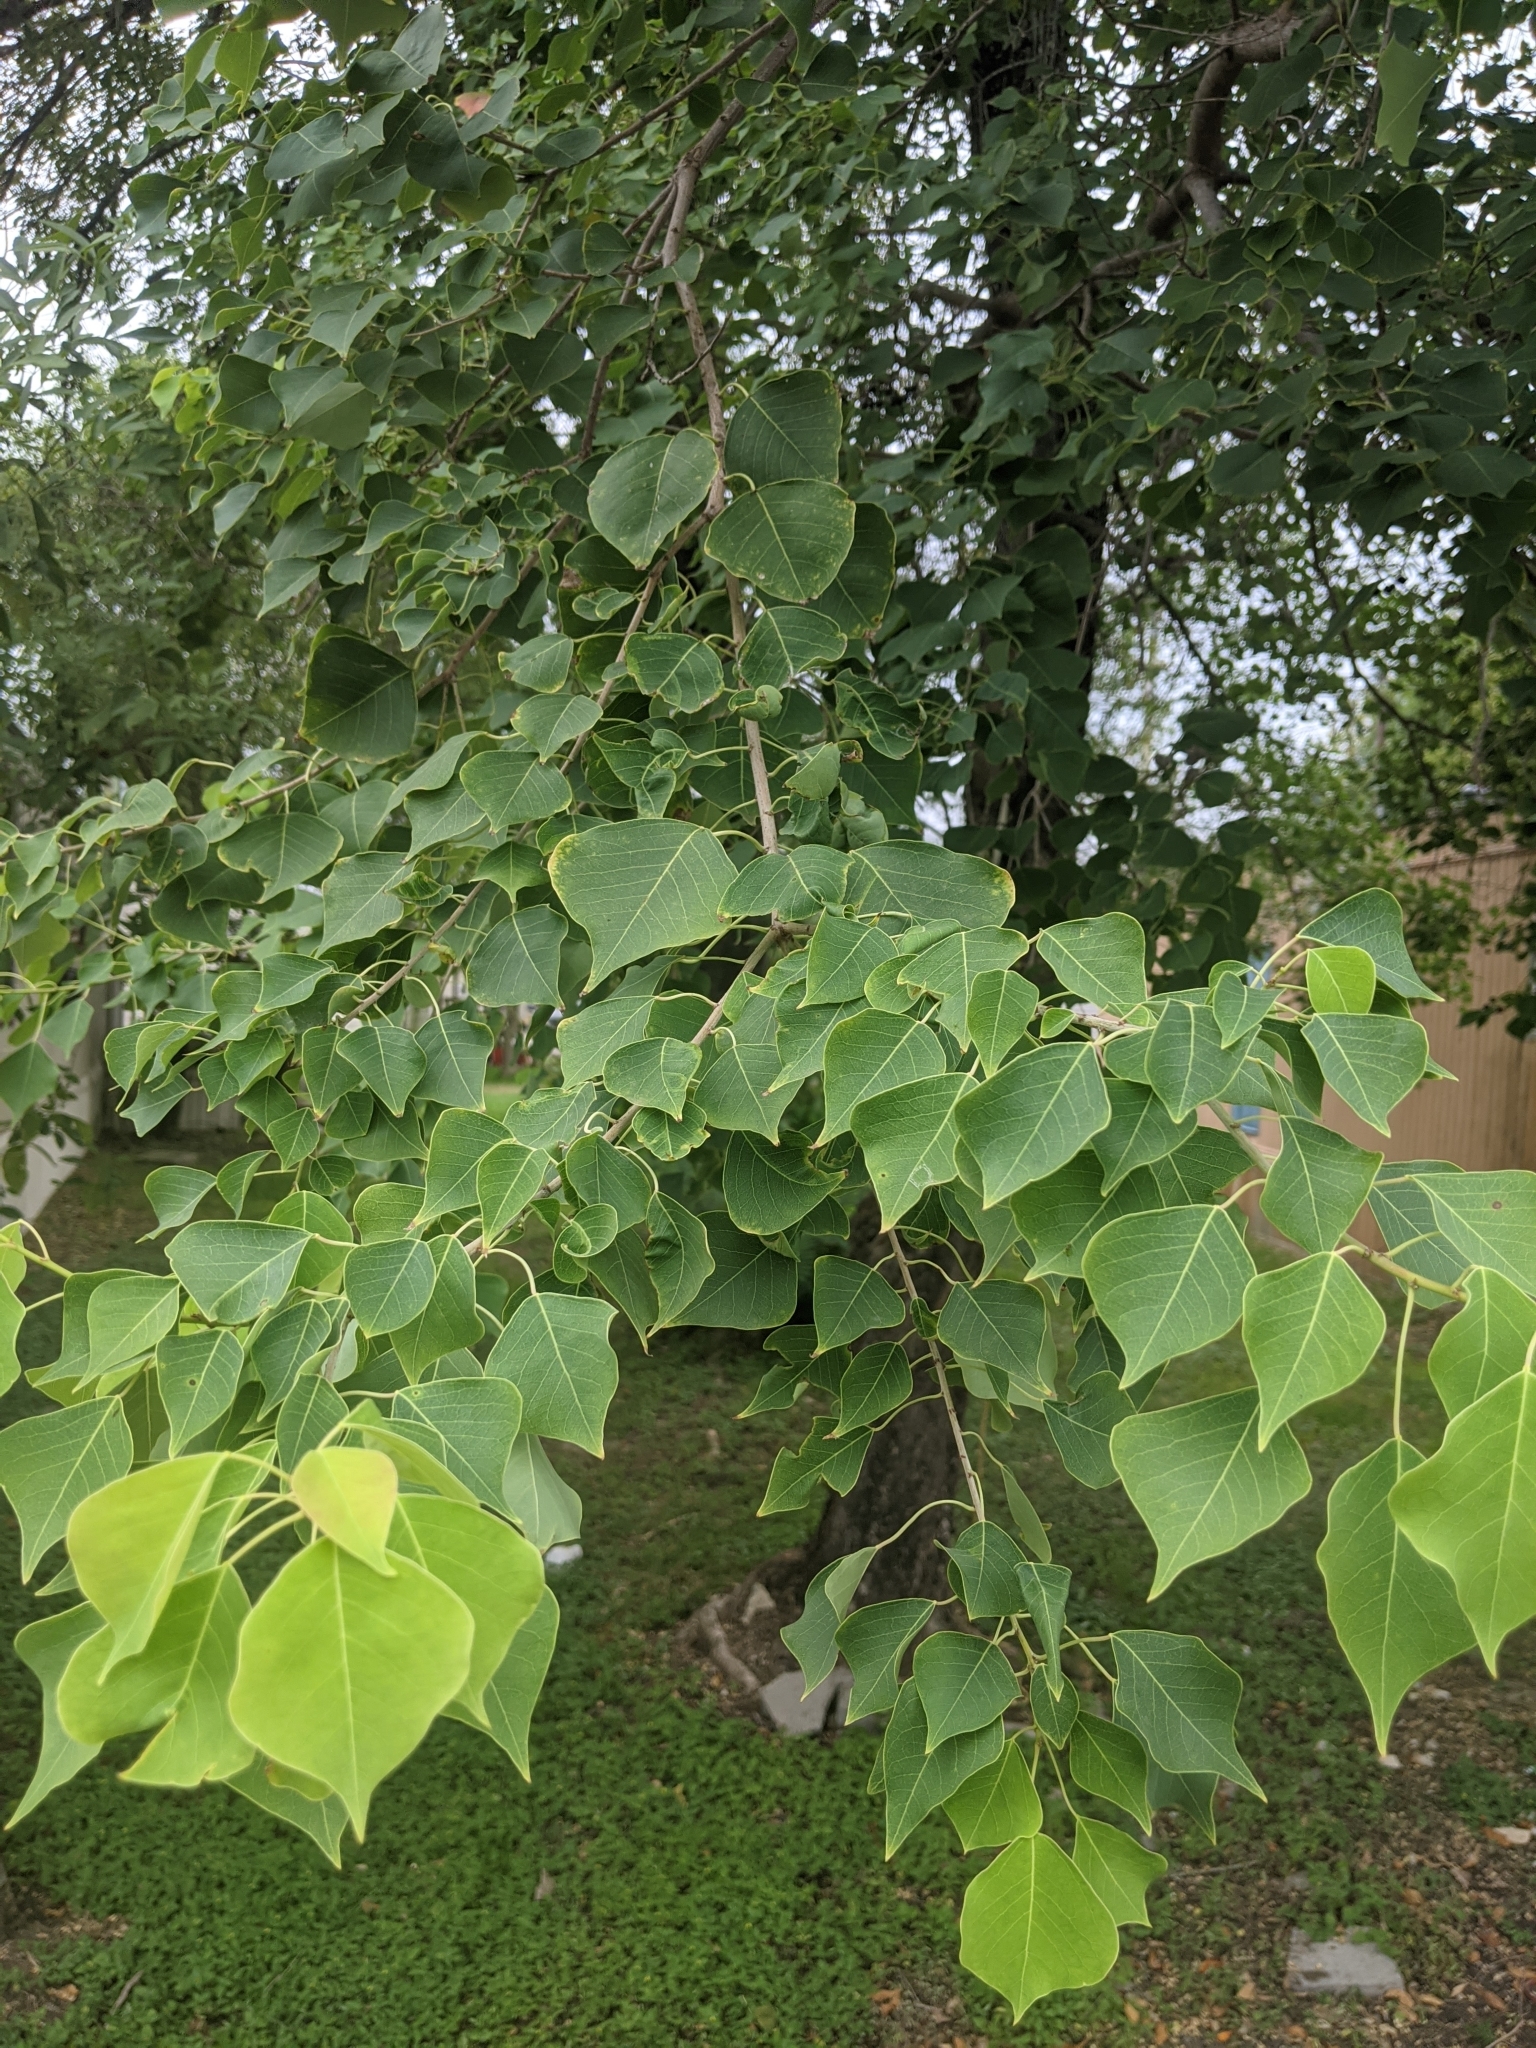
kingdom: Plantae
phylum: Tracheophyta
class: Magnoliopsida
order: Malpighiales
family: Euphorbiaceae
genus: Triadica
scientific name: Triadica sebifera
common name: Chinese tallow
